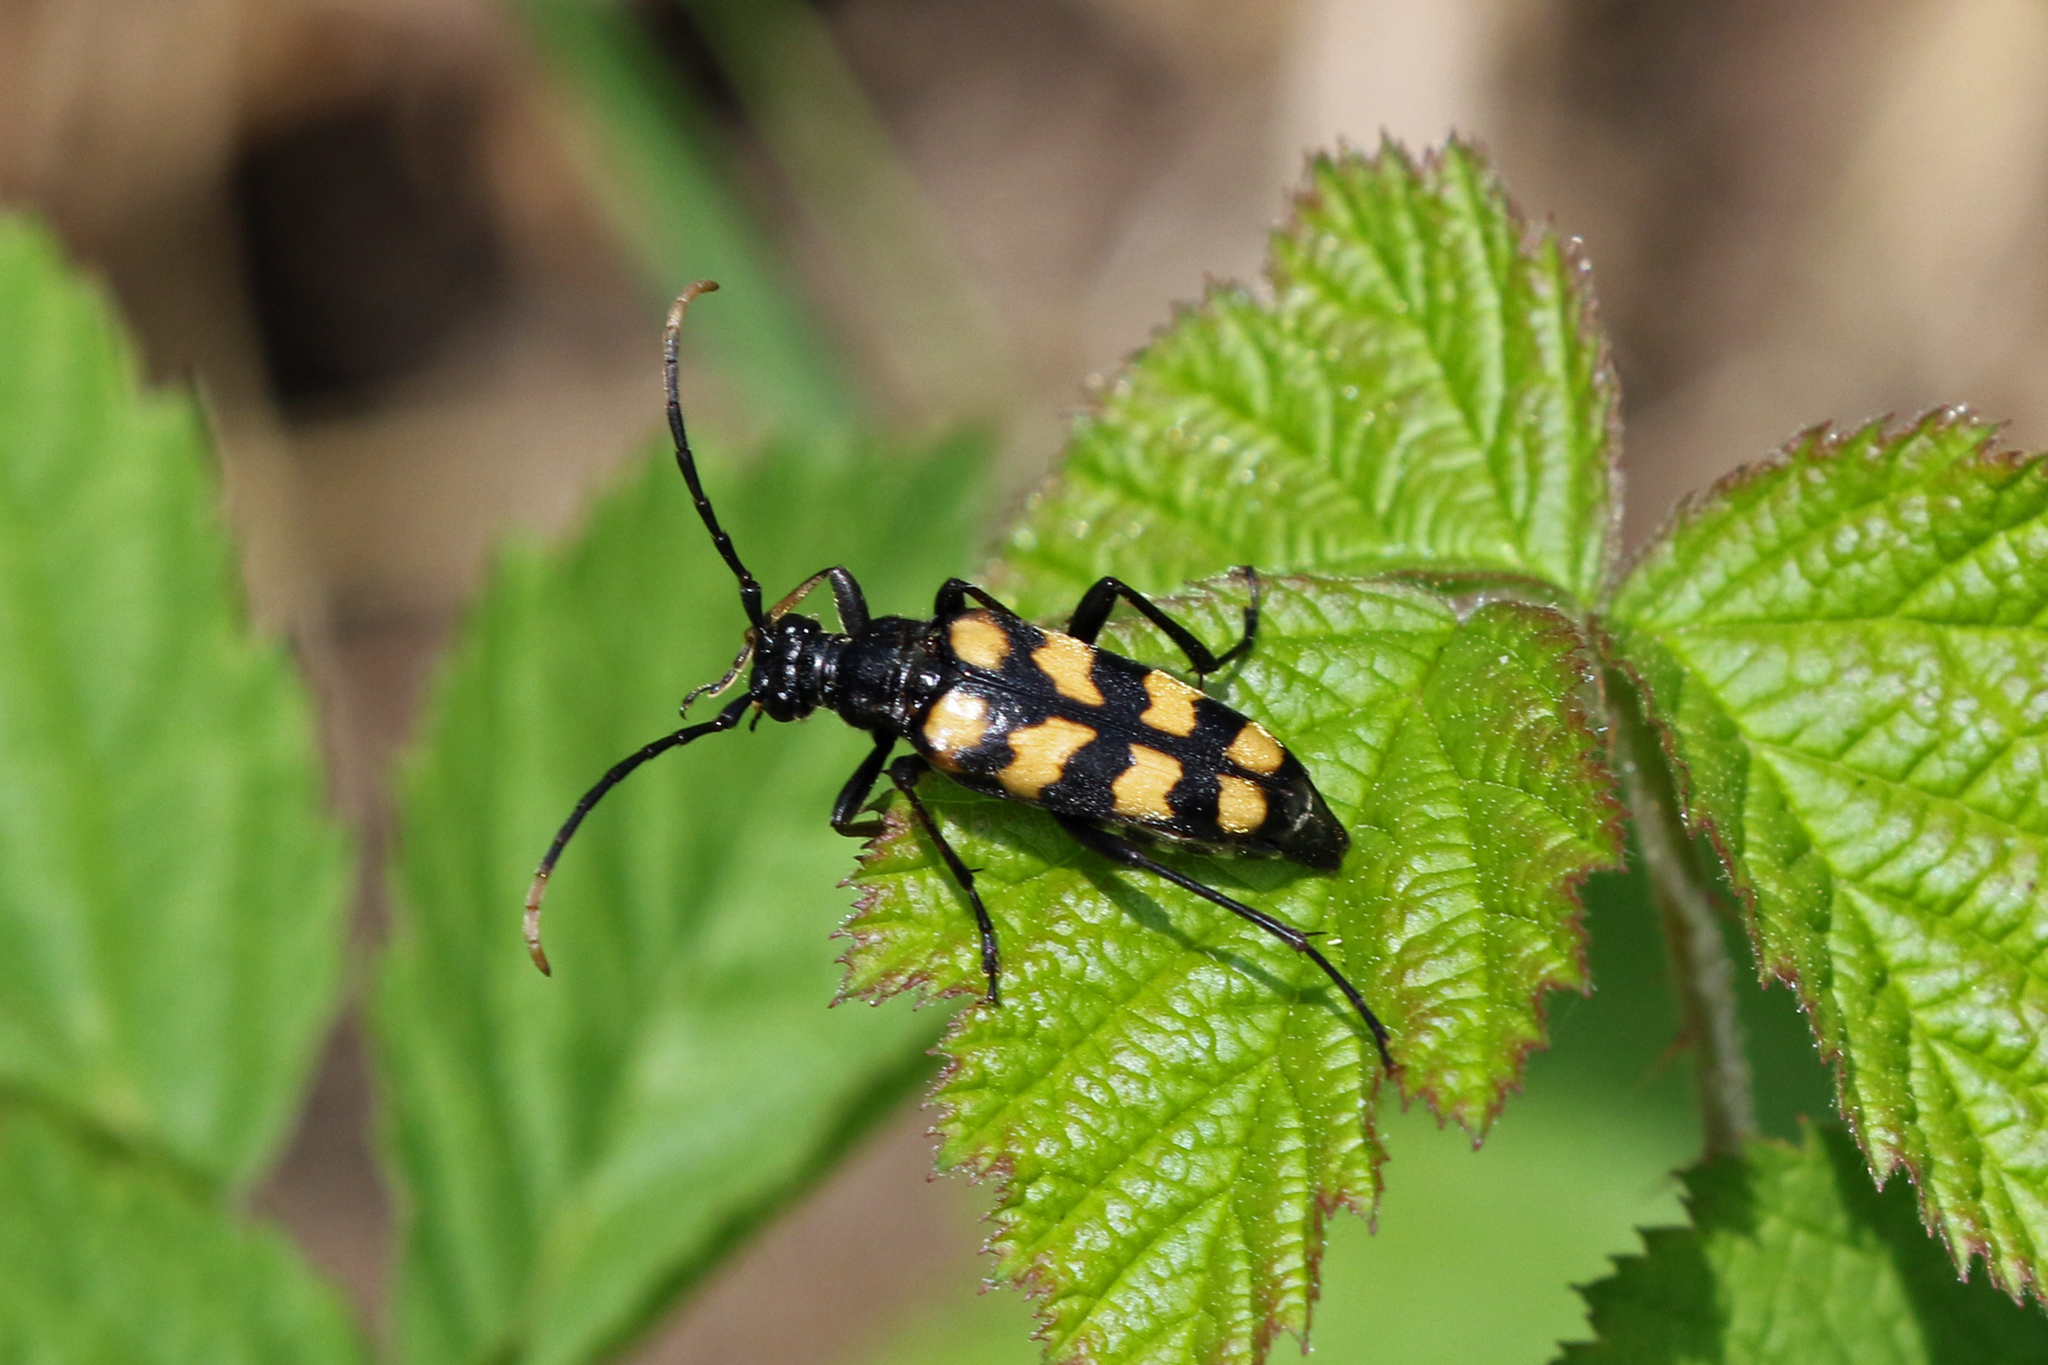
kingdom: Animalia
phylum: Arthropoda
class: Insecta
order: Coleoptera
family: Cerambycidae
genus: Leptura
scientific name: Leptura quadrifasciata
